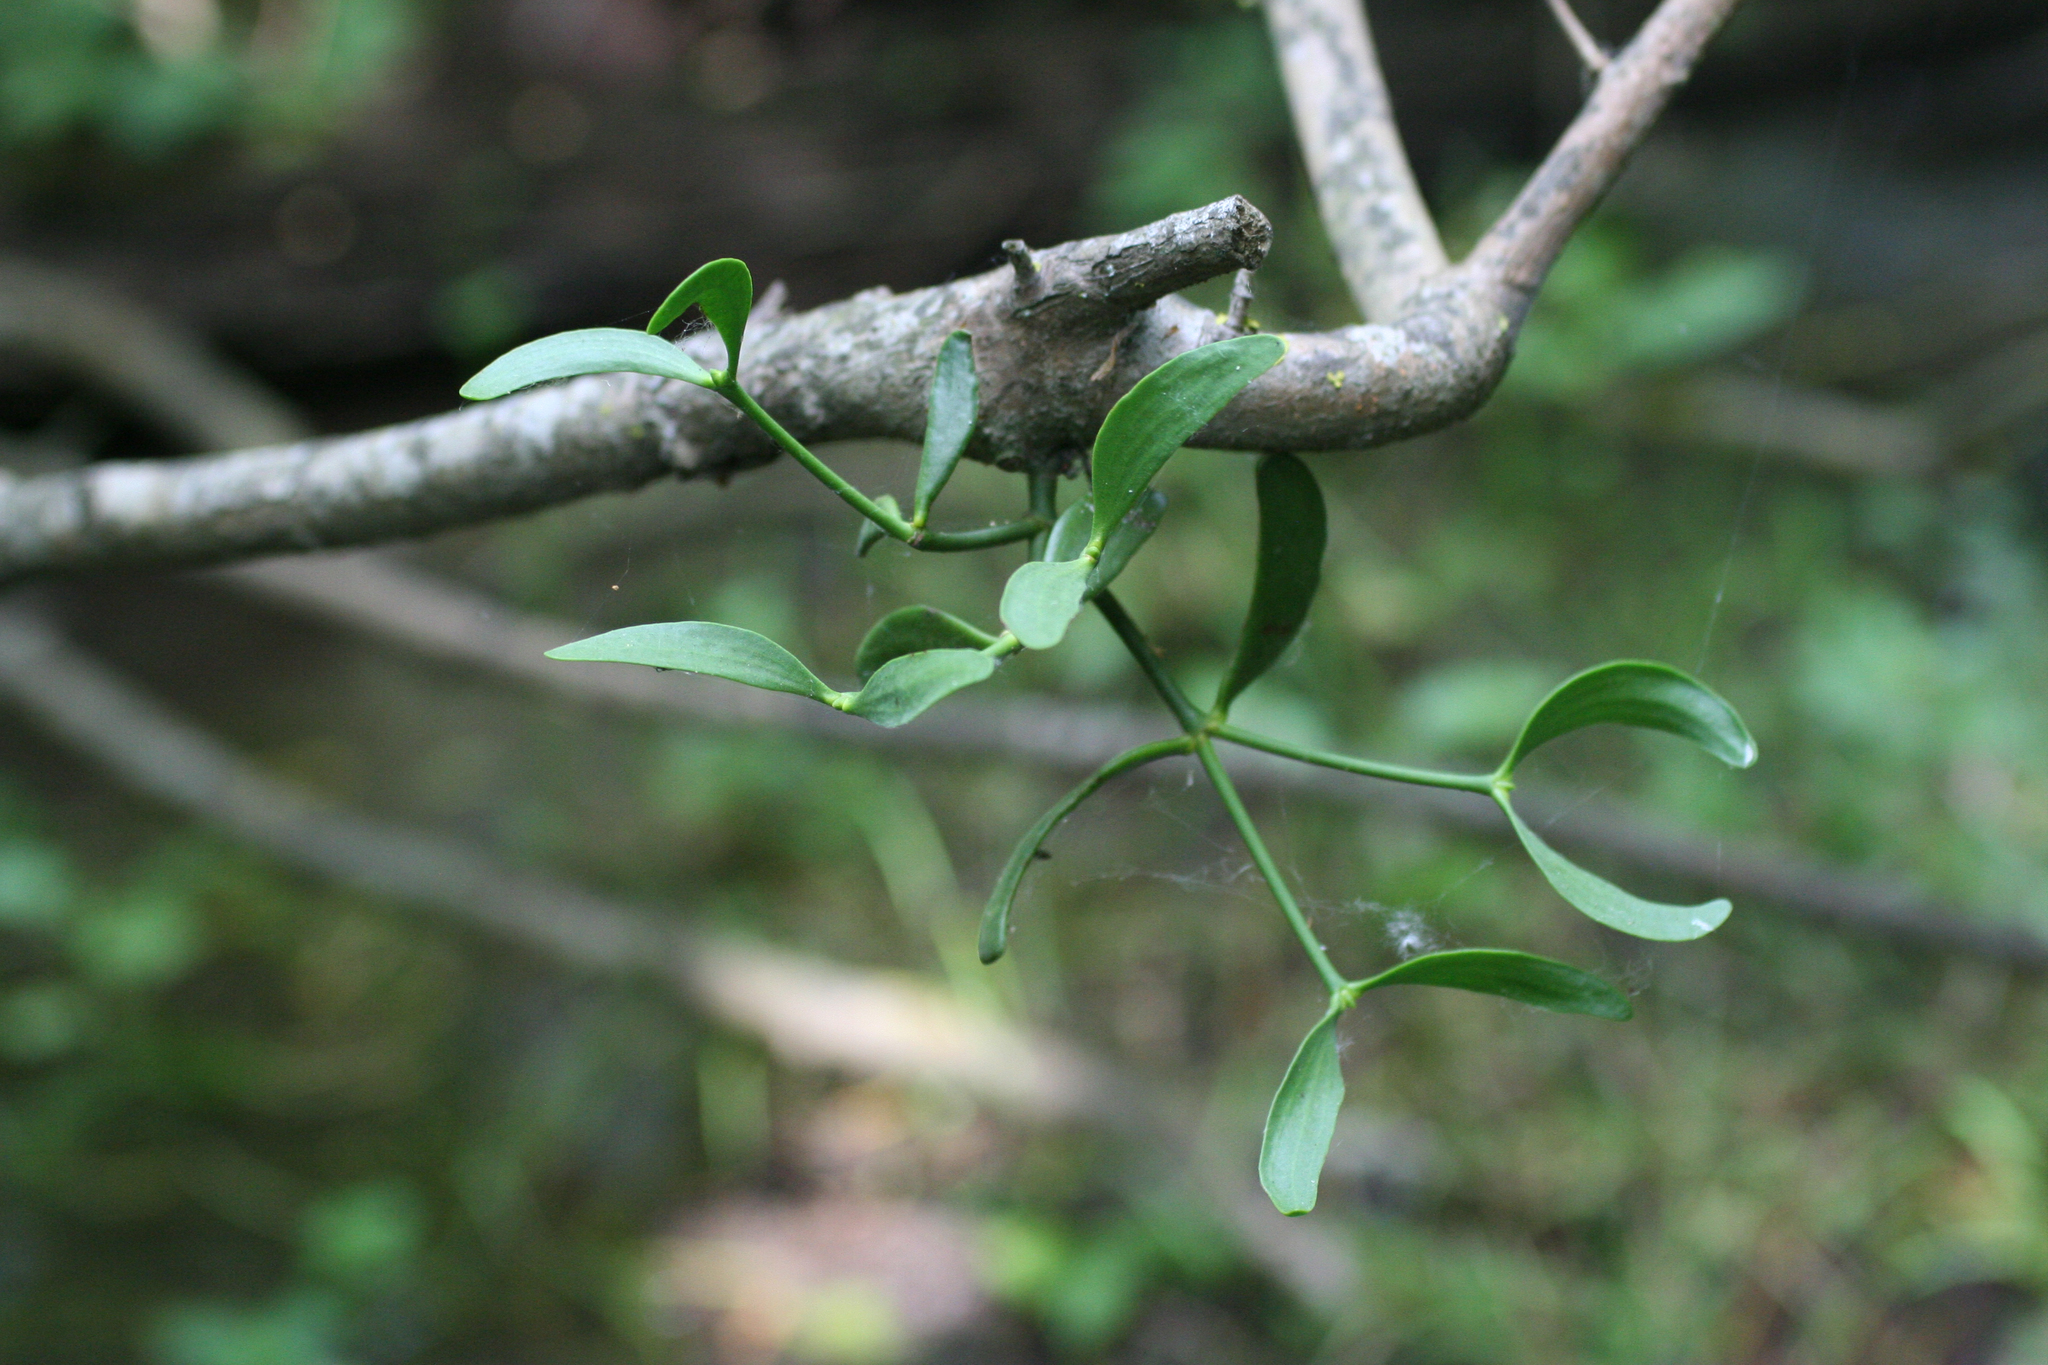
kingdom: Plantae
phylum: Tracheophyta
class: Magnoliopsida
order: Santalales
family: Viscaceae
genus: Viscum
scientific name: Viscum album
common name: Mistletoe
